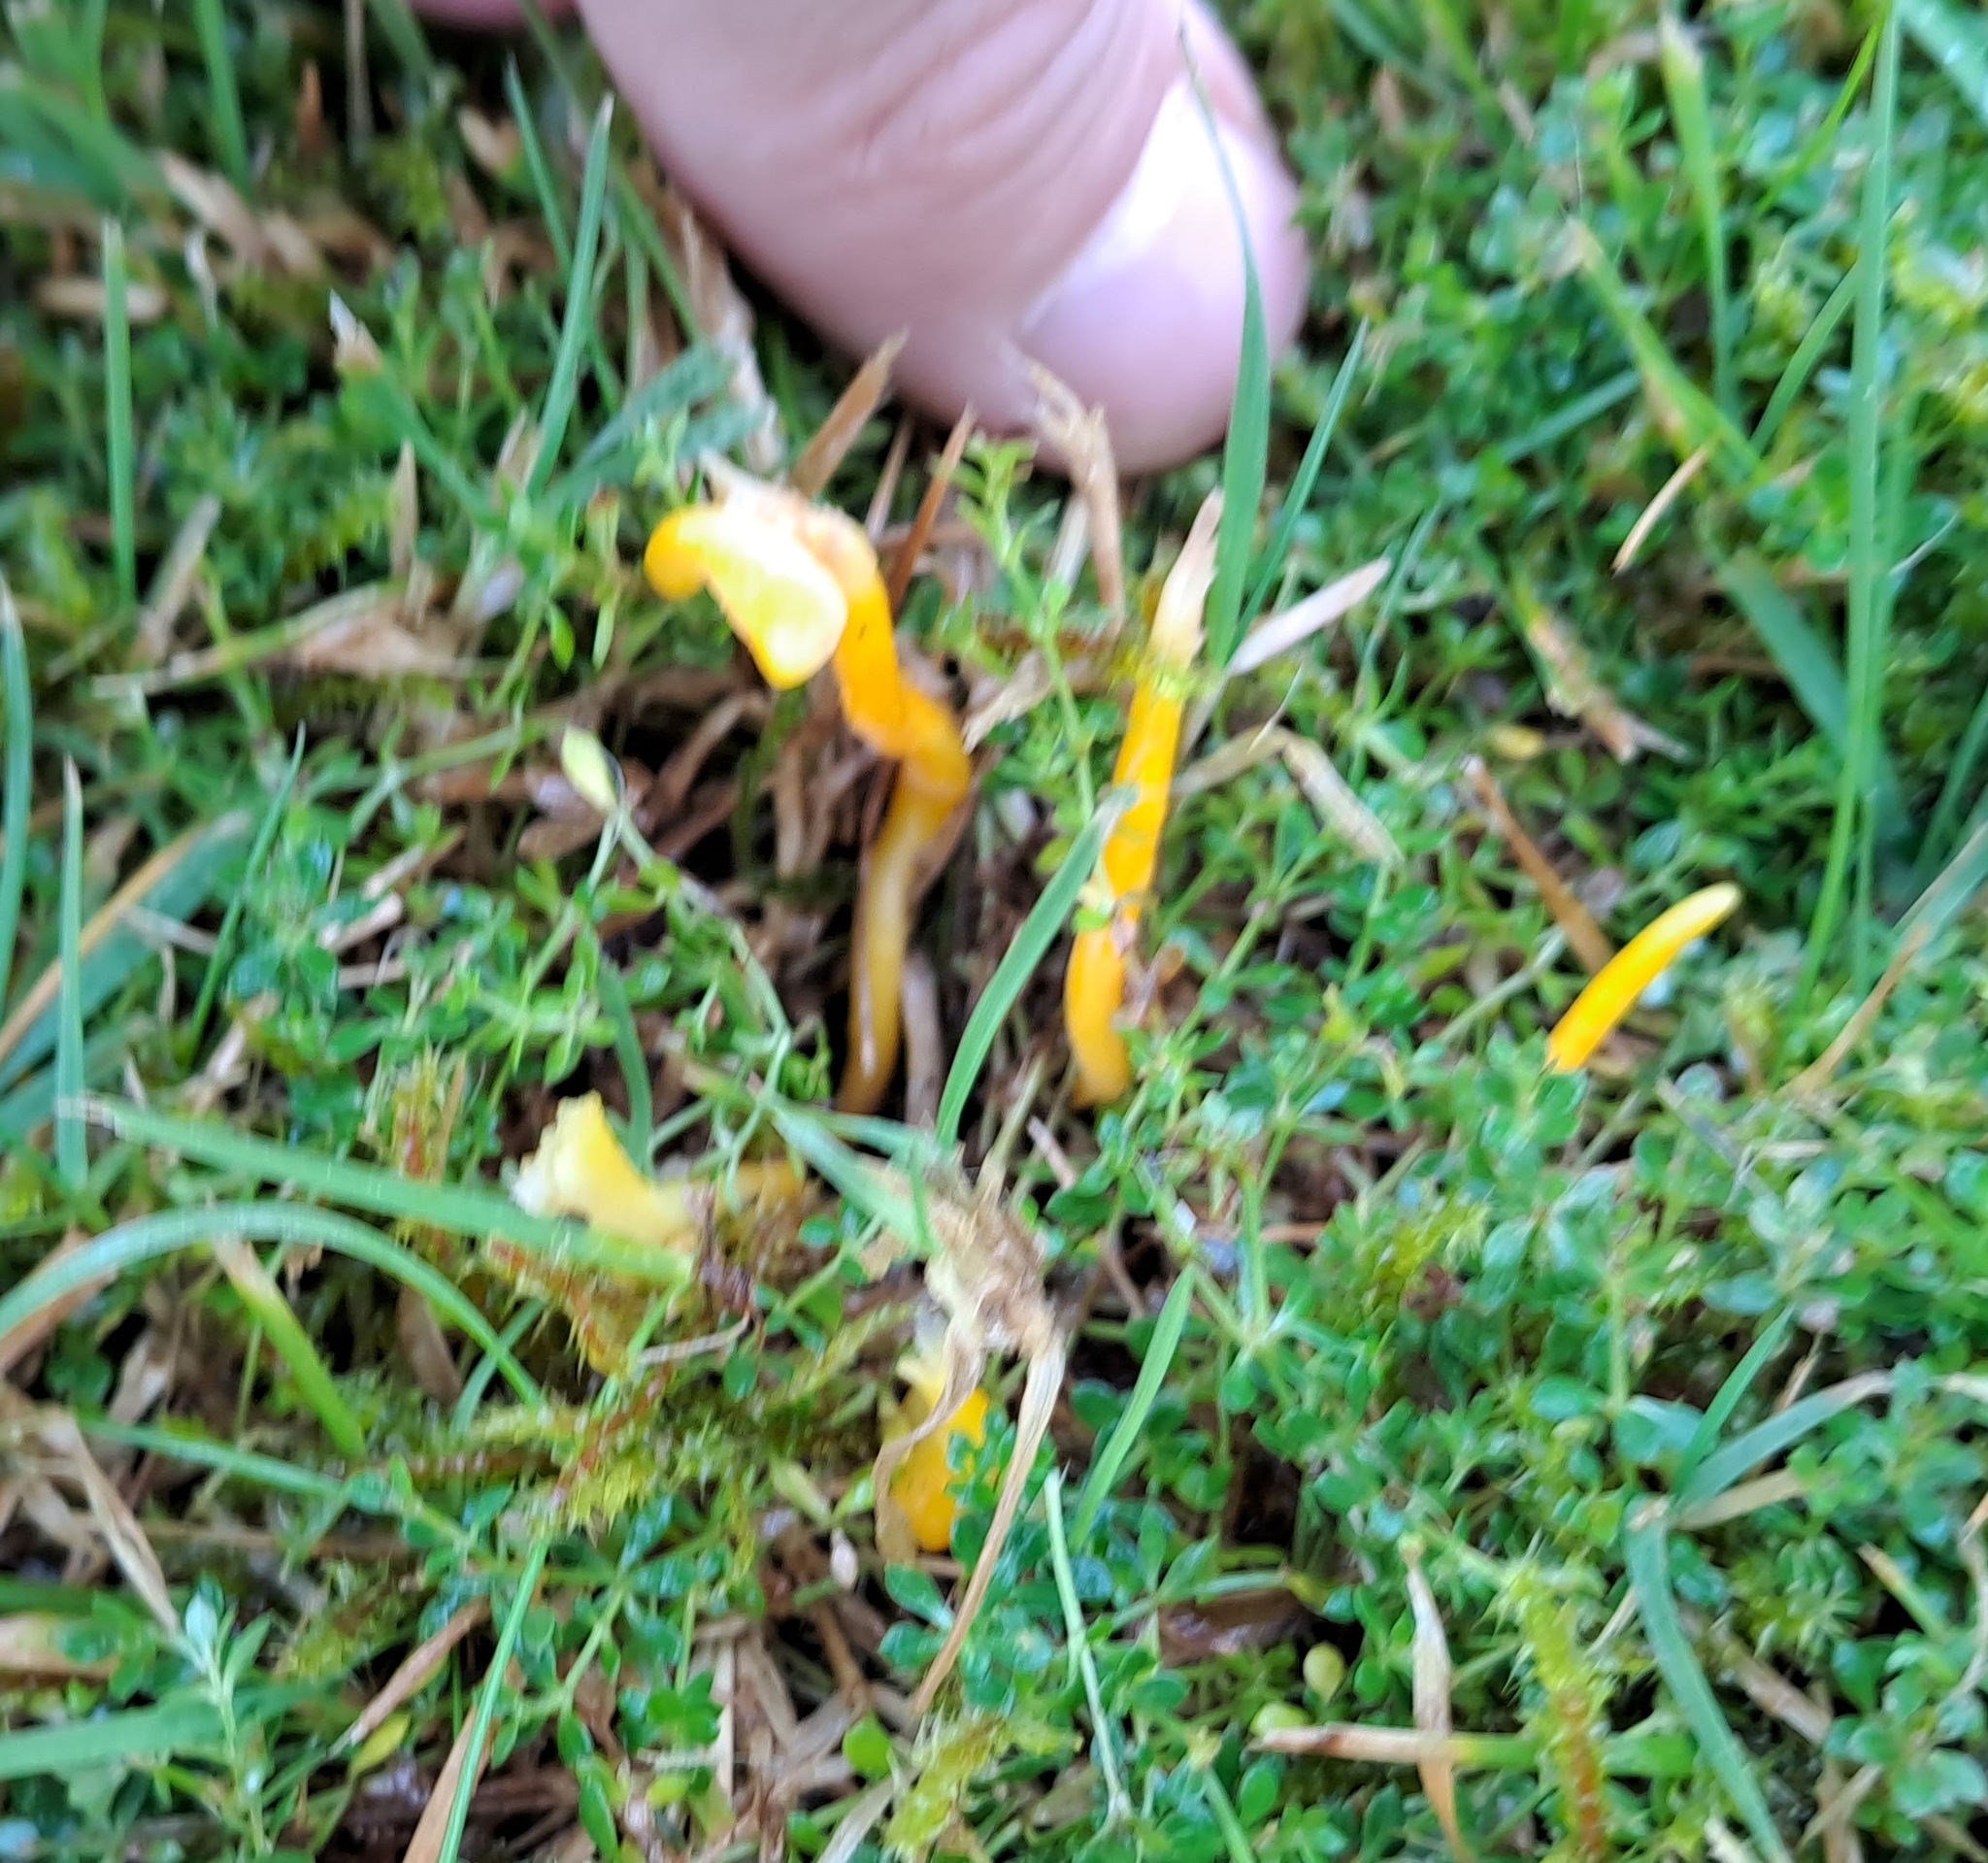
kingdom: Fungi
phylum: Basidiomycota
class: Agaricomycetes
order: Agaricales
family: Clavariaceae
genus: Clavulinopsis
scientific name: Clavulinopsis helvola
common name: Yellow club
